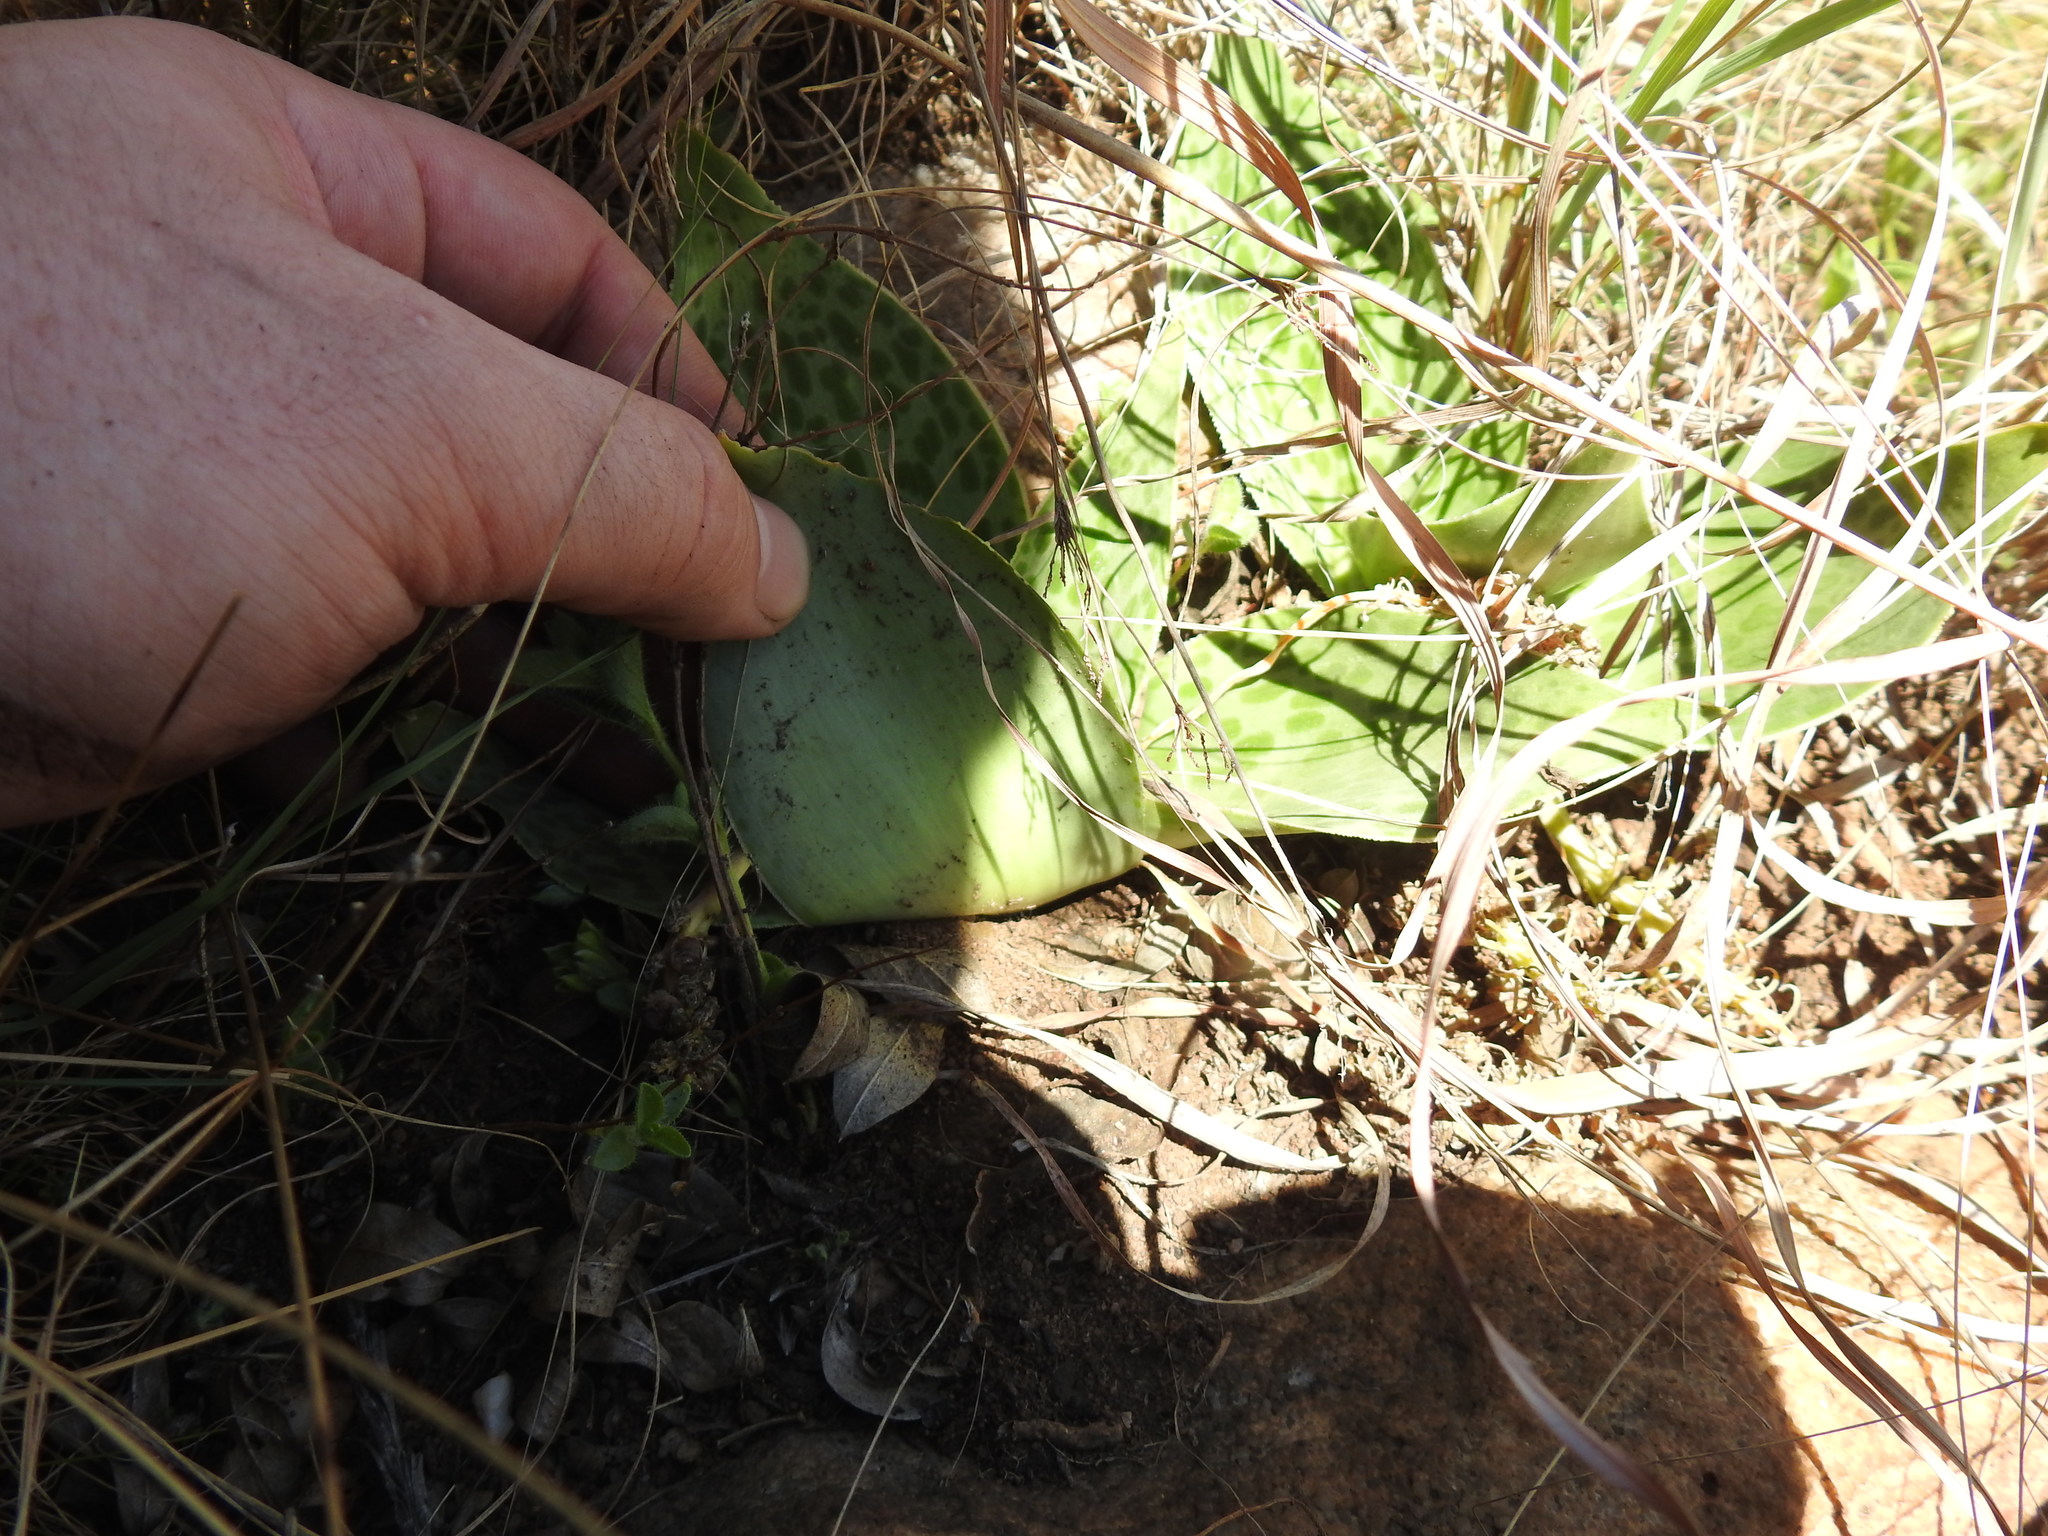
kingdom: Plantae
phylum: Tracheophyta
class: Liliopsida
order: Asparagales
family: Asparagaceae
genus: Ledebouria
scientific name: Ledebouria ovatifolia
